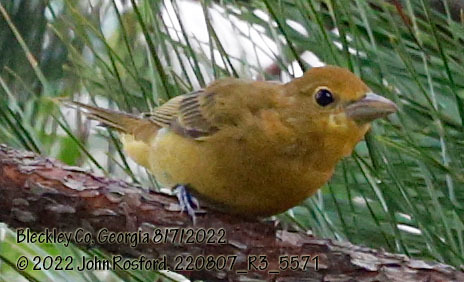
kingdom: Animalia
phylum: Chordata
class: Aves
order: Passeriformes
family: Cardinalidae
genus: Piranga
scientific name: Piranga rubra
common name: Summer tanager
